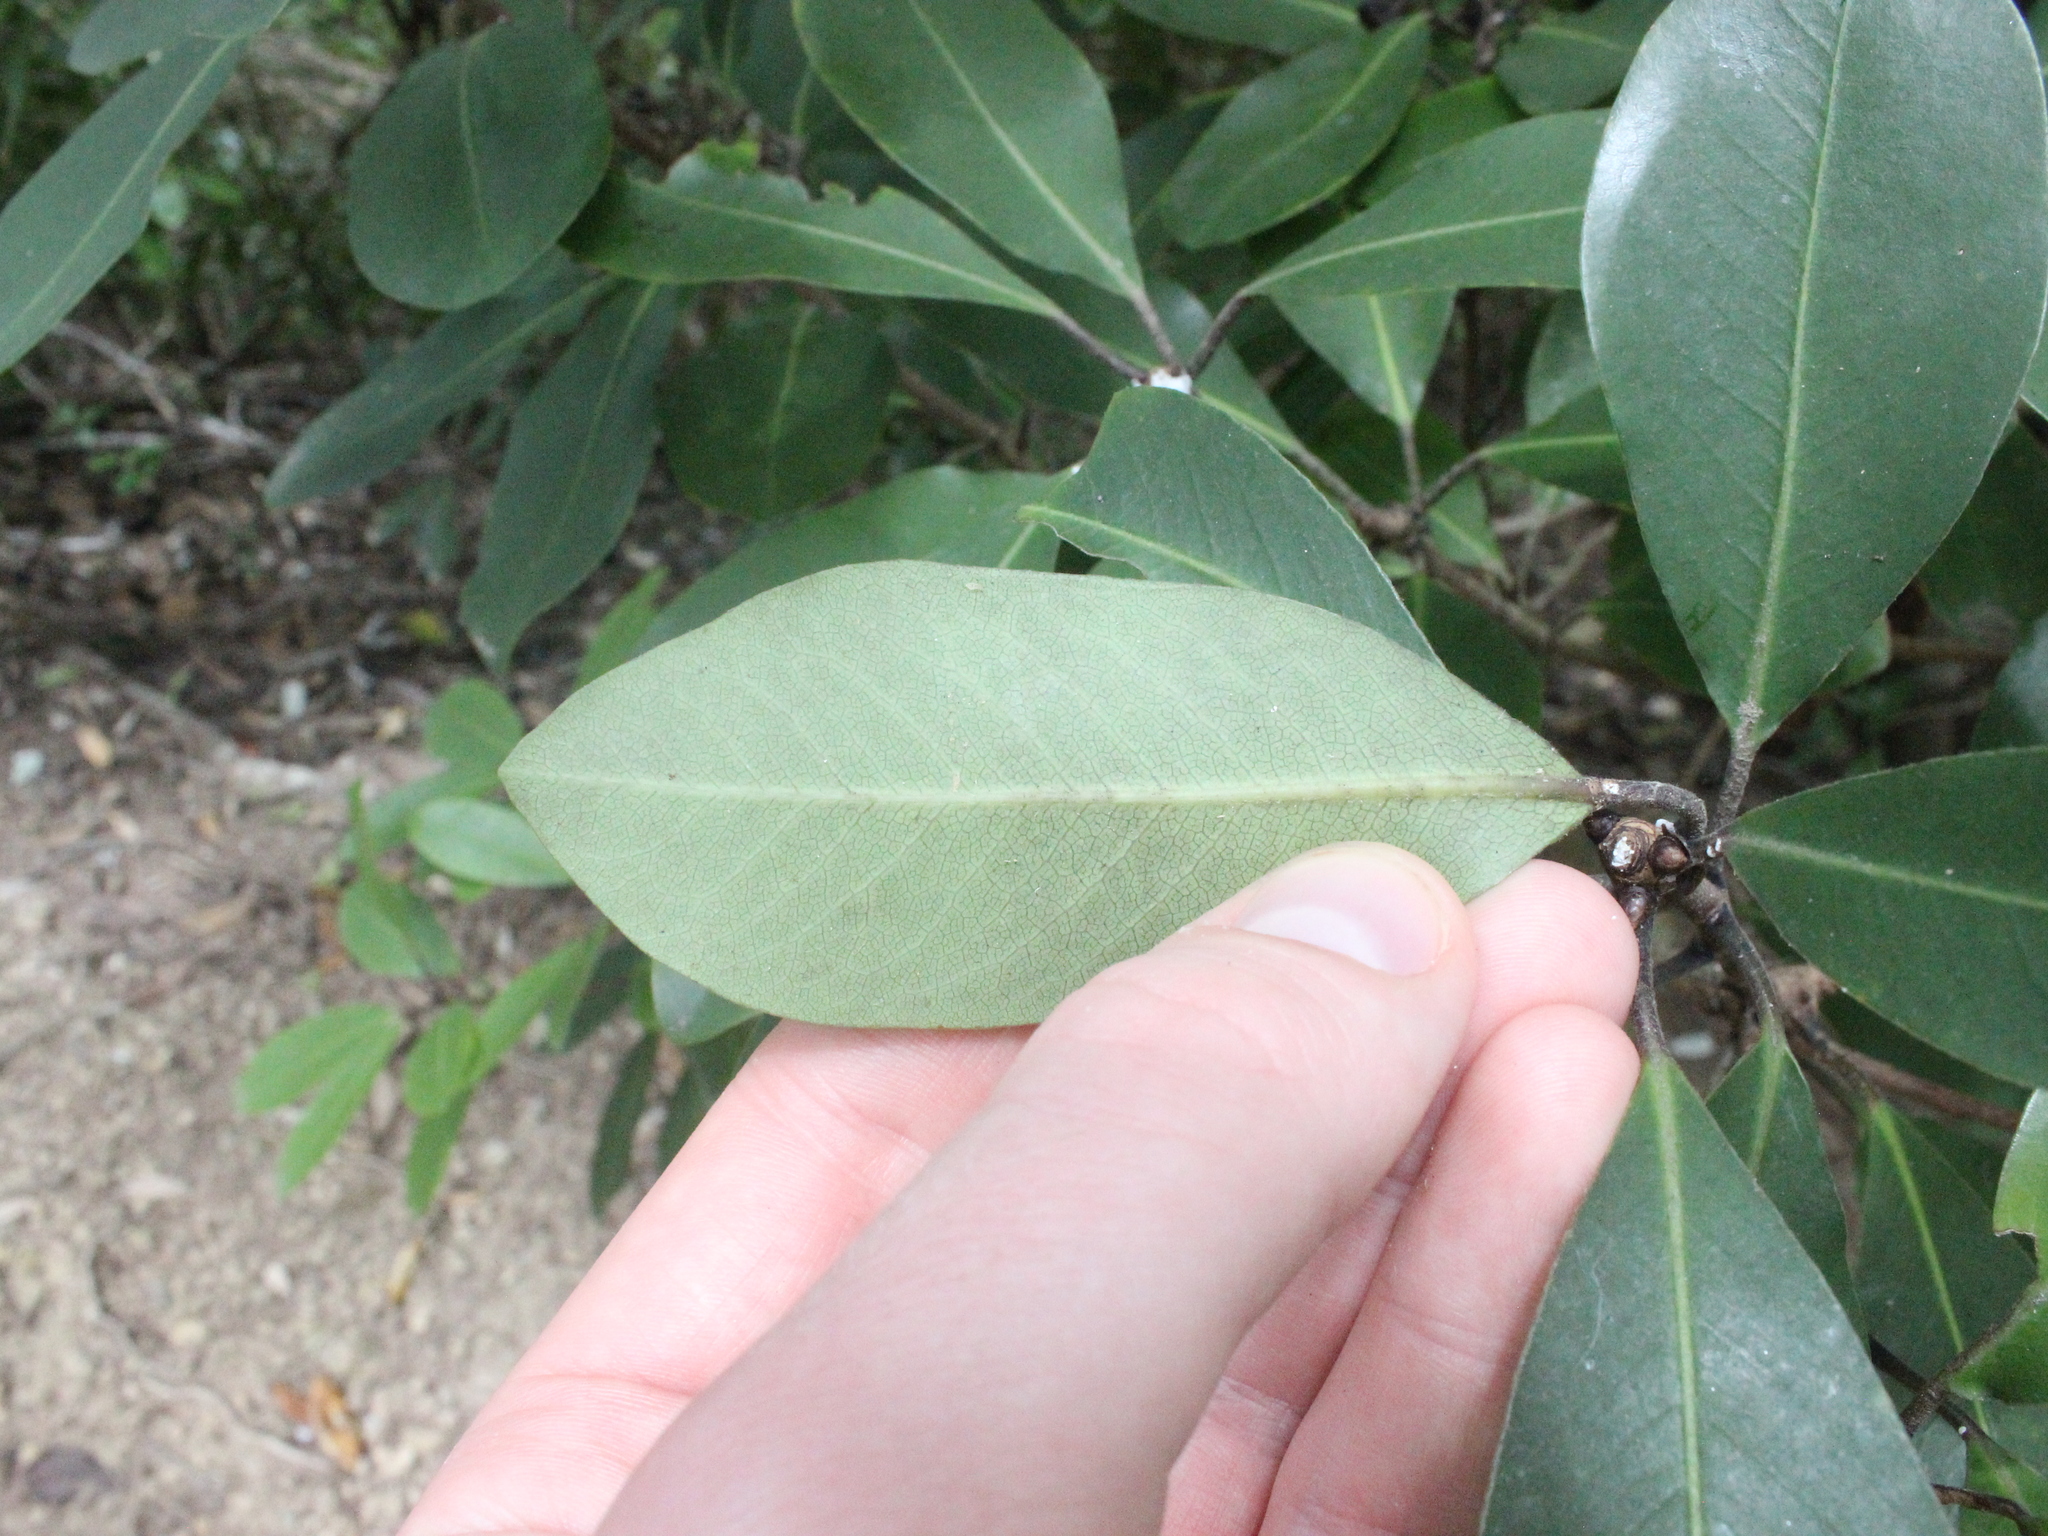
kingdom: Plantae
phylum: Tracheophyta
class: Magnoliopsida
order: Apiales
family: Pittosporaceae
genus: Pittosporum
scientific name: Pittosporum umbellatum
